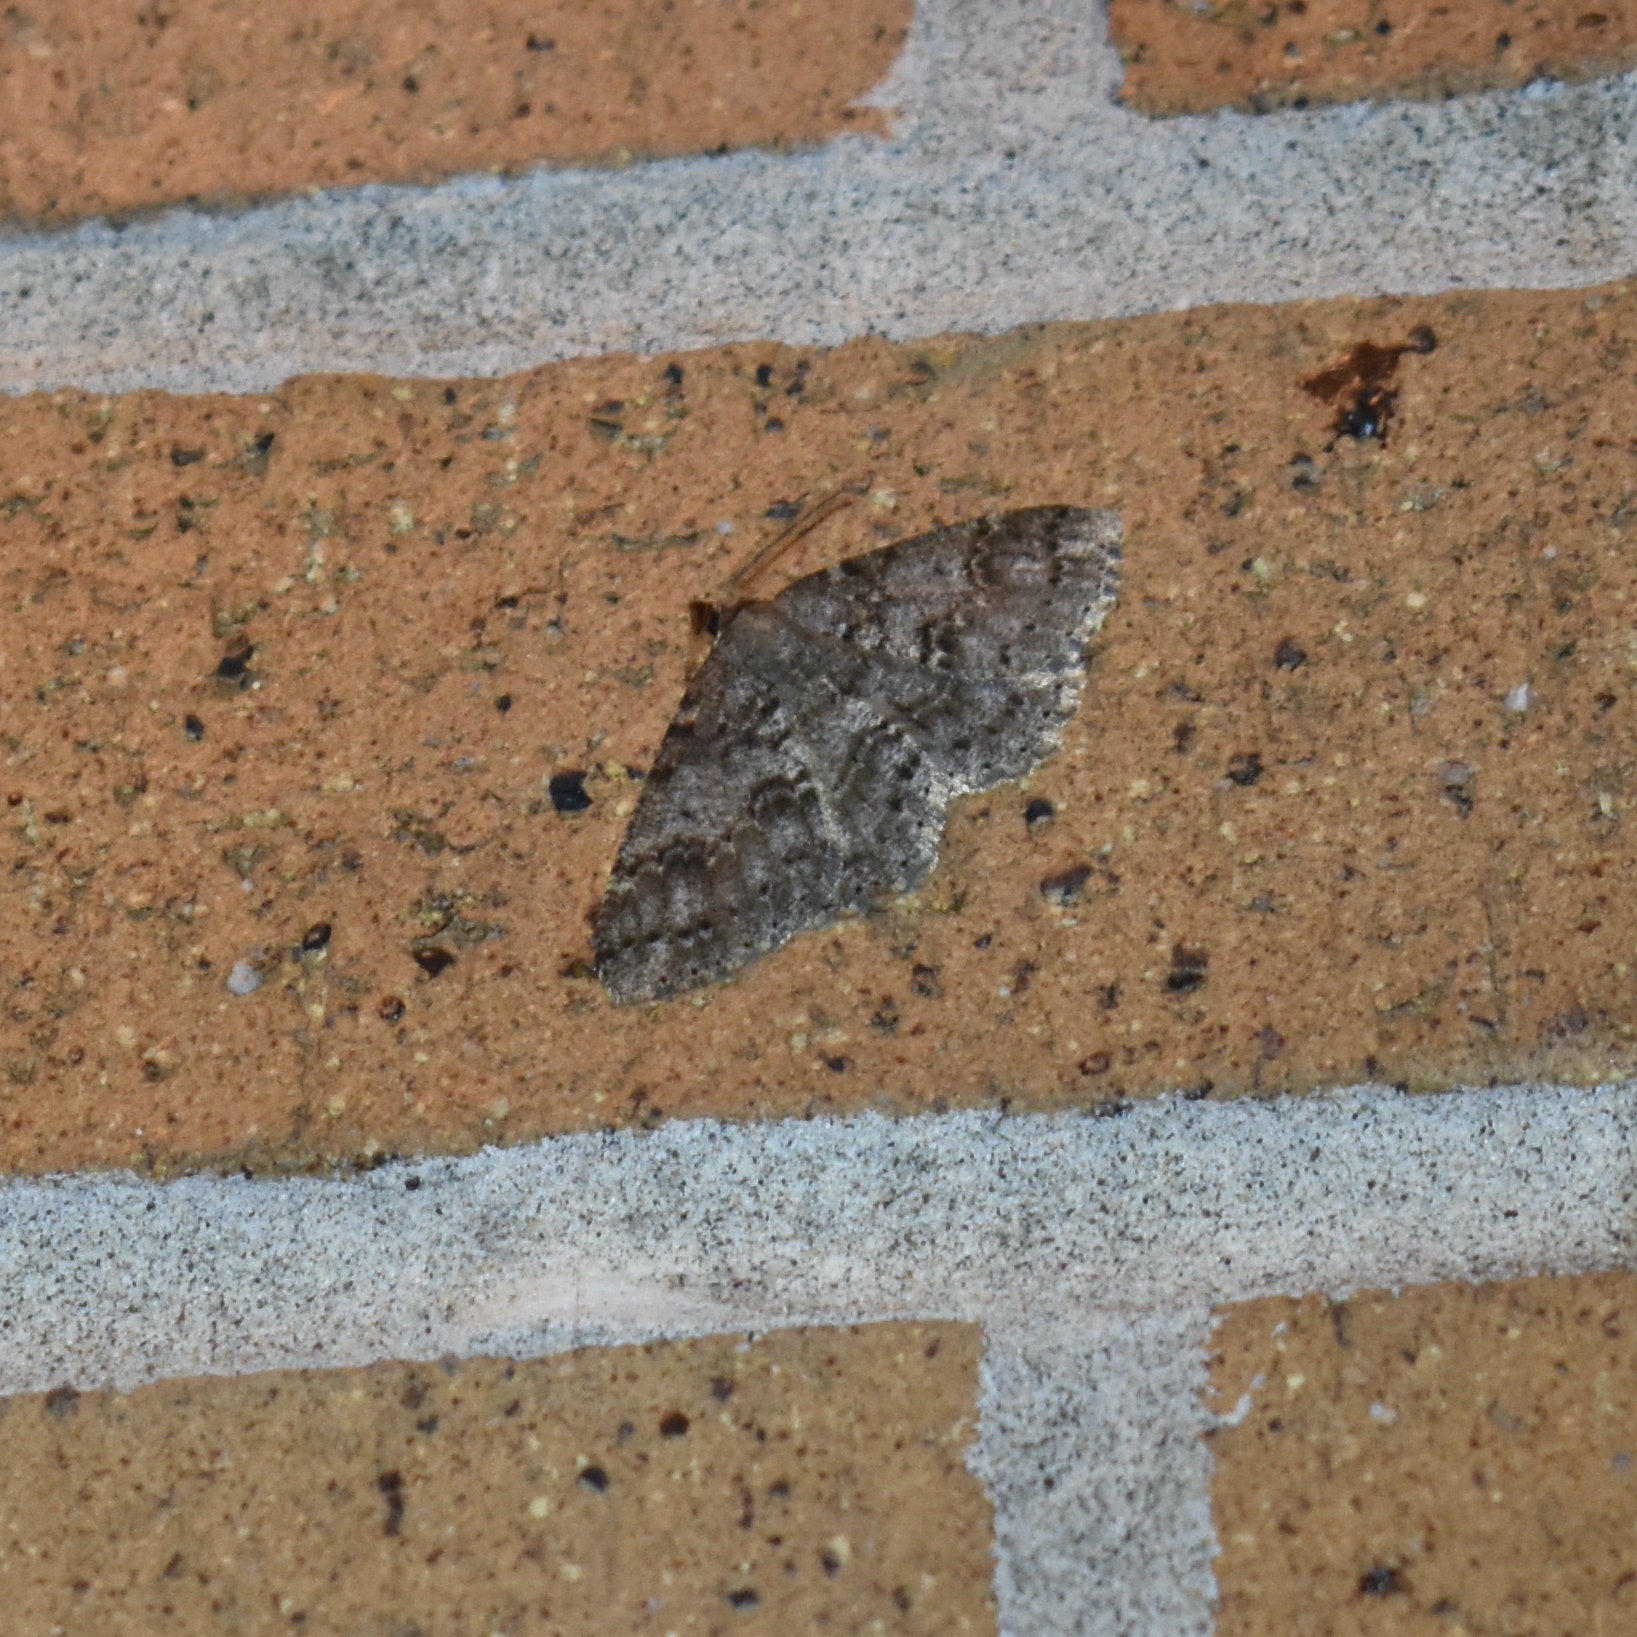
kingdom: Animalia
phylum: Arthropoda
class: Insecta
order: Lepidoptera
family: Geometridae
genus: Melanolophia
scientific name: Melanolophia imitata
